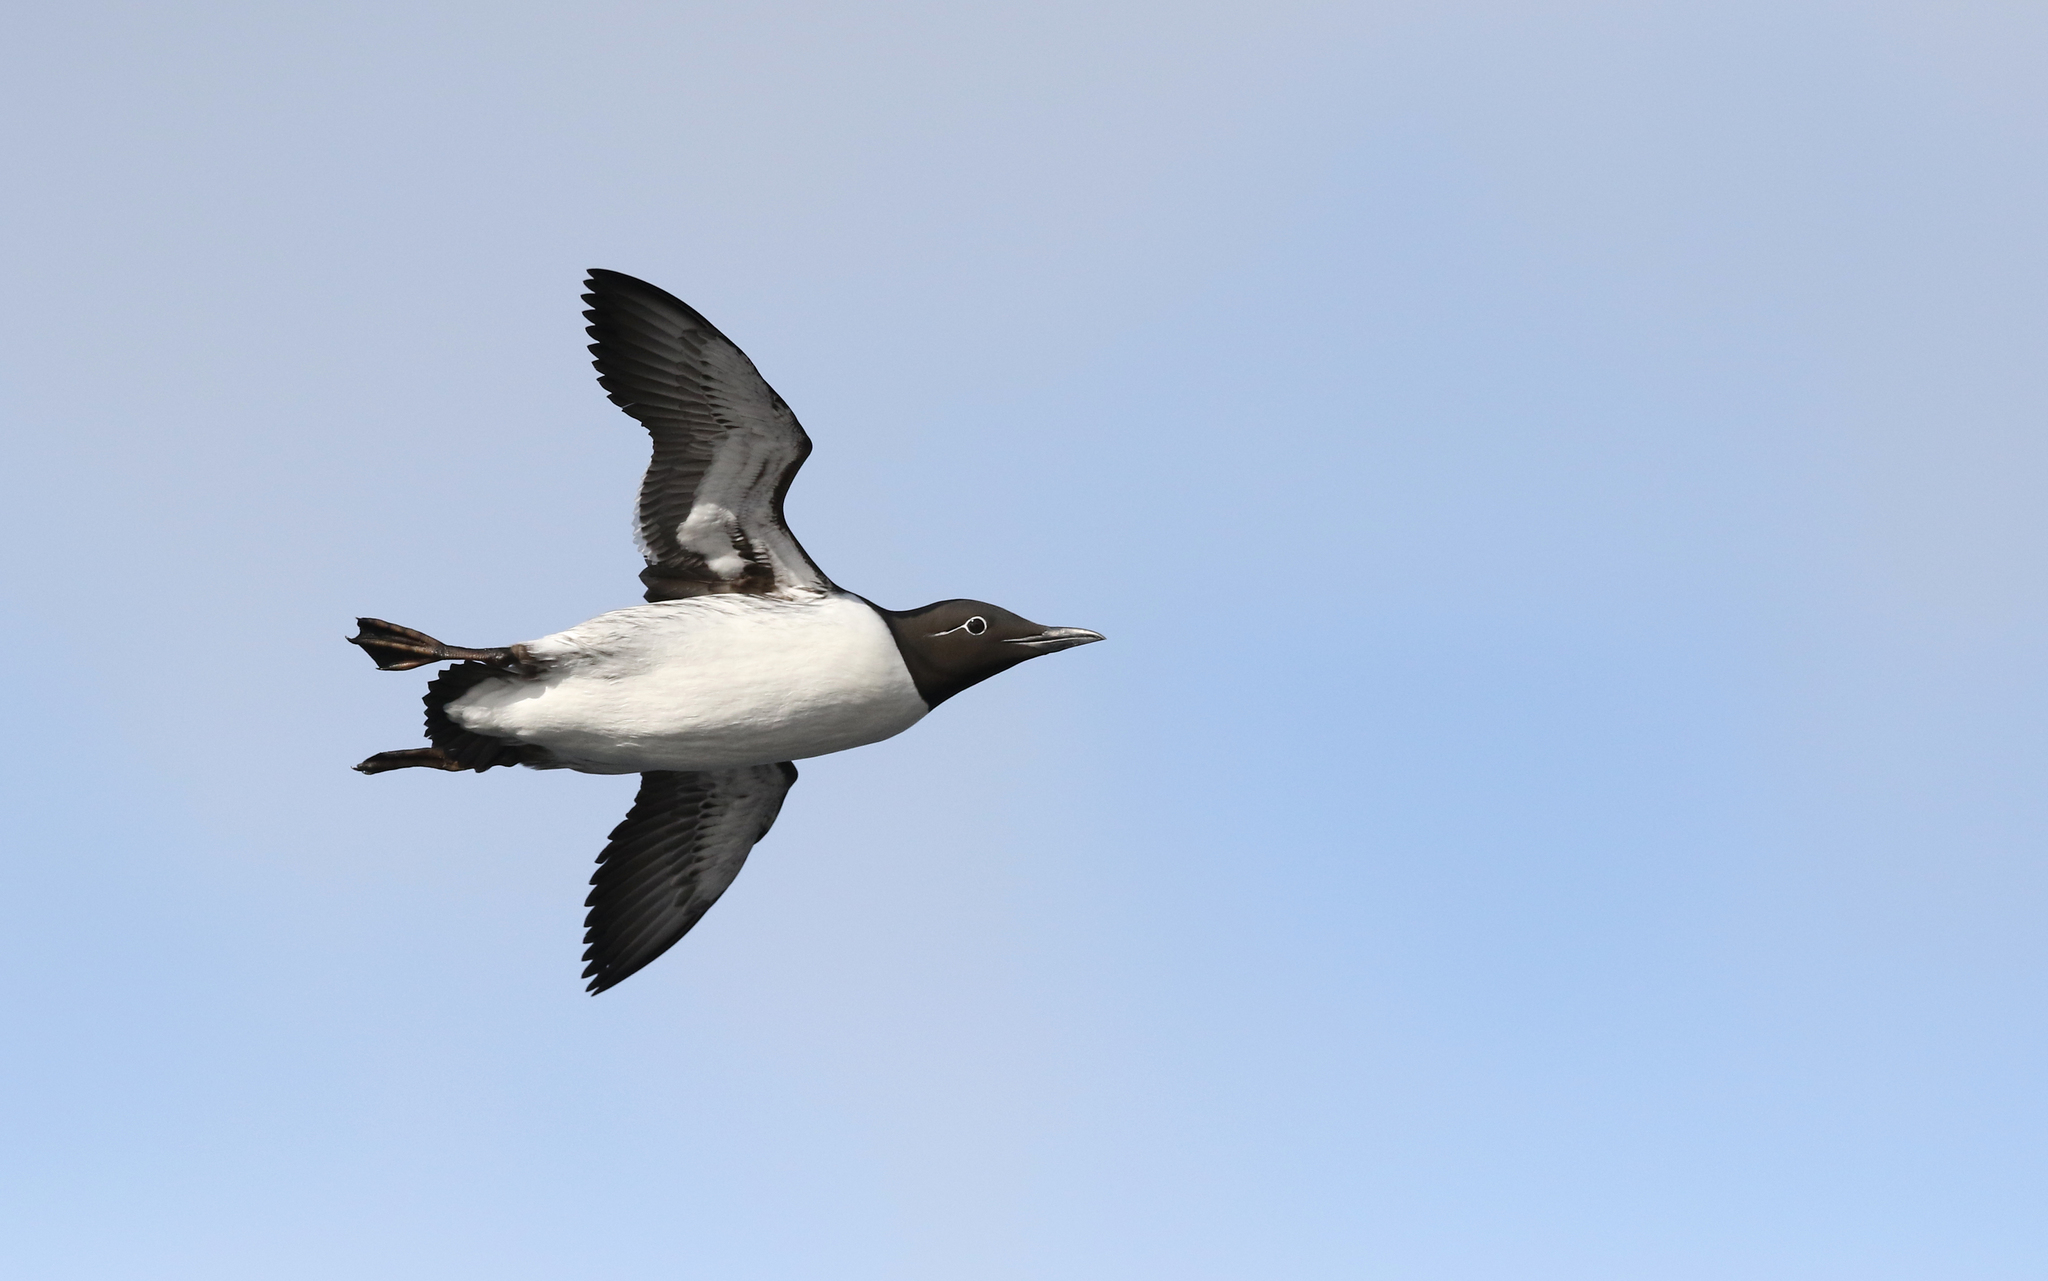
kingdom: Animalia
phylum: Chordata
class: Aves
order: Charadriiformes
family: Alcidae
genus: Uria
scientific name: Uria aalge
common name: Common murre
